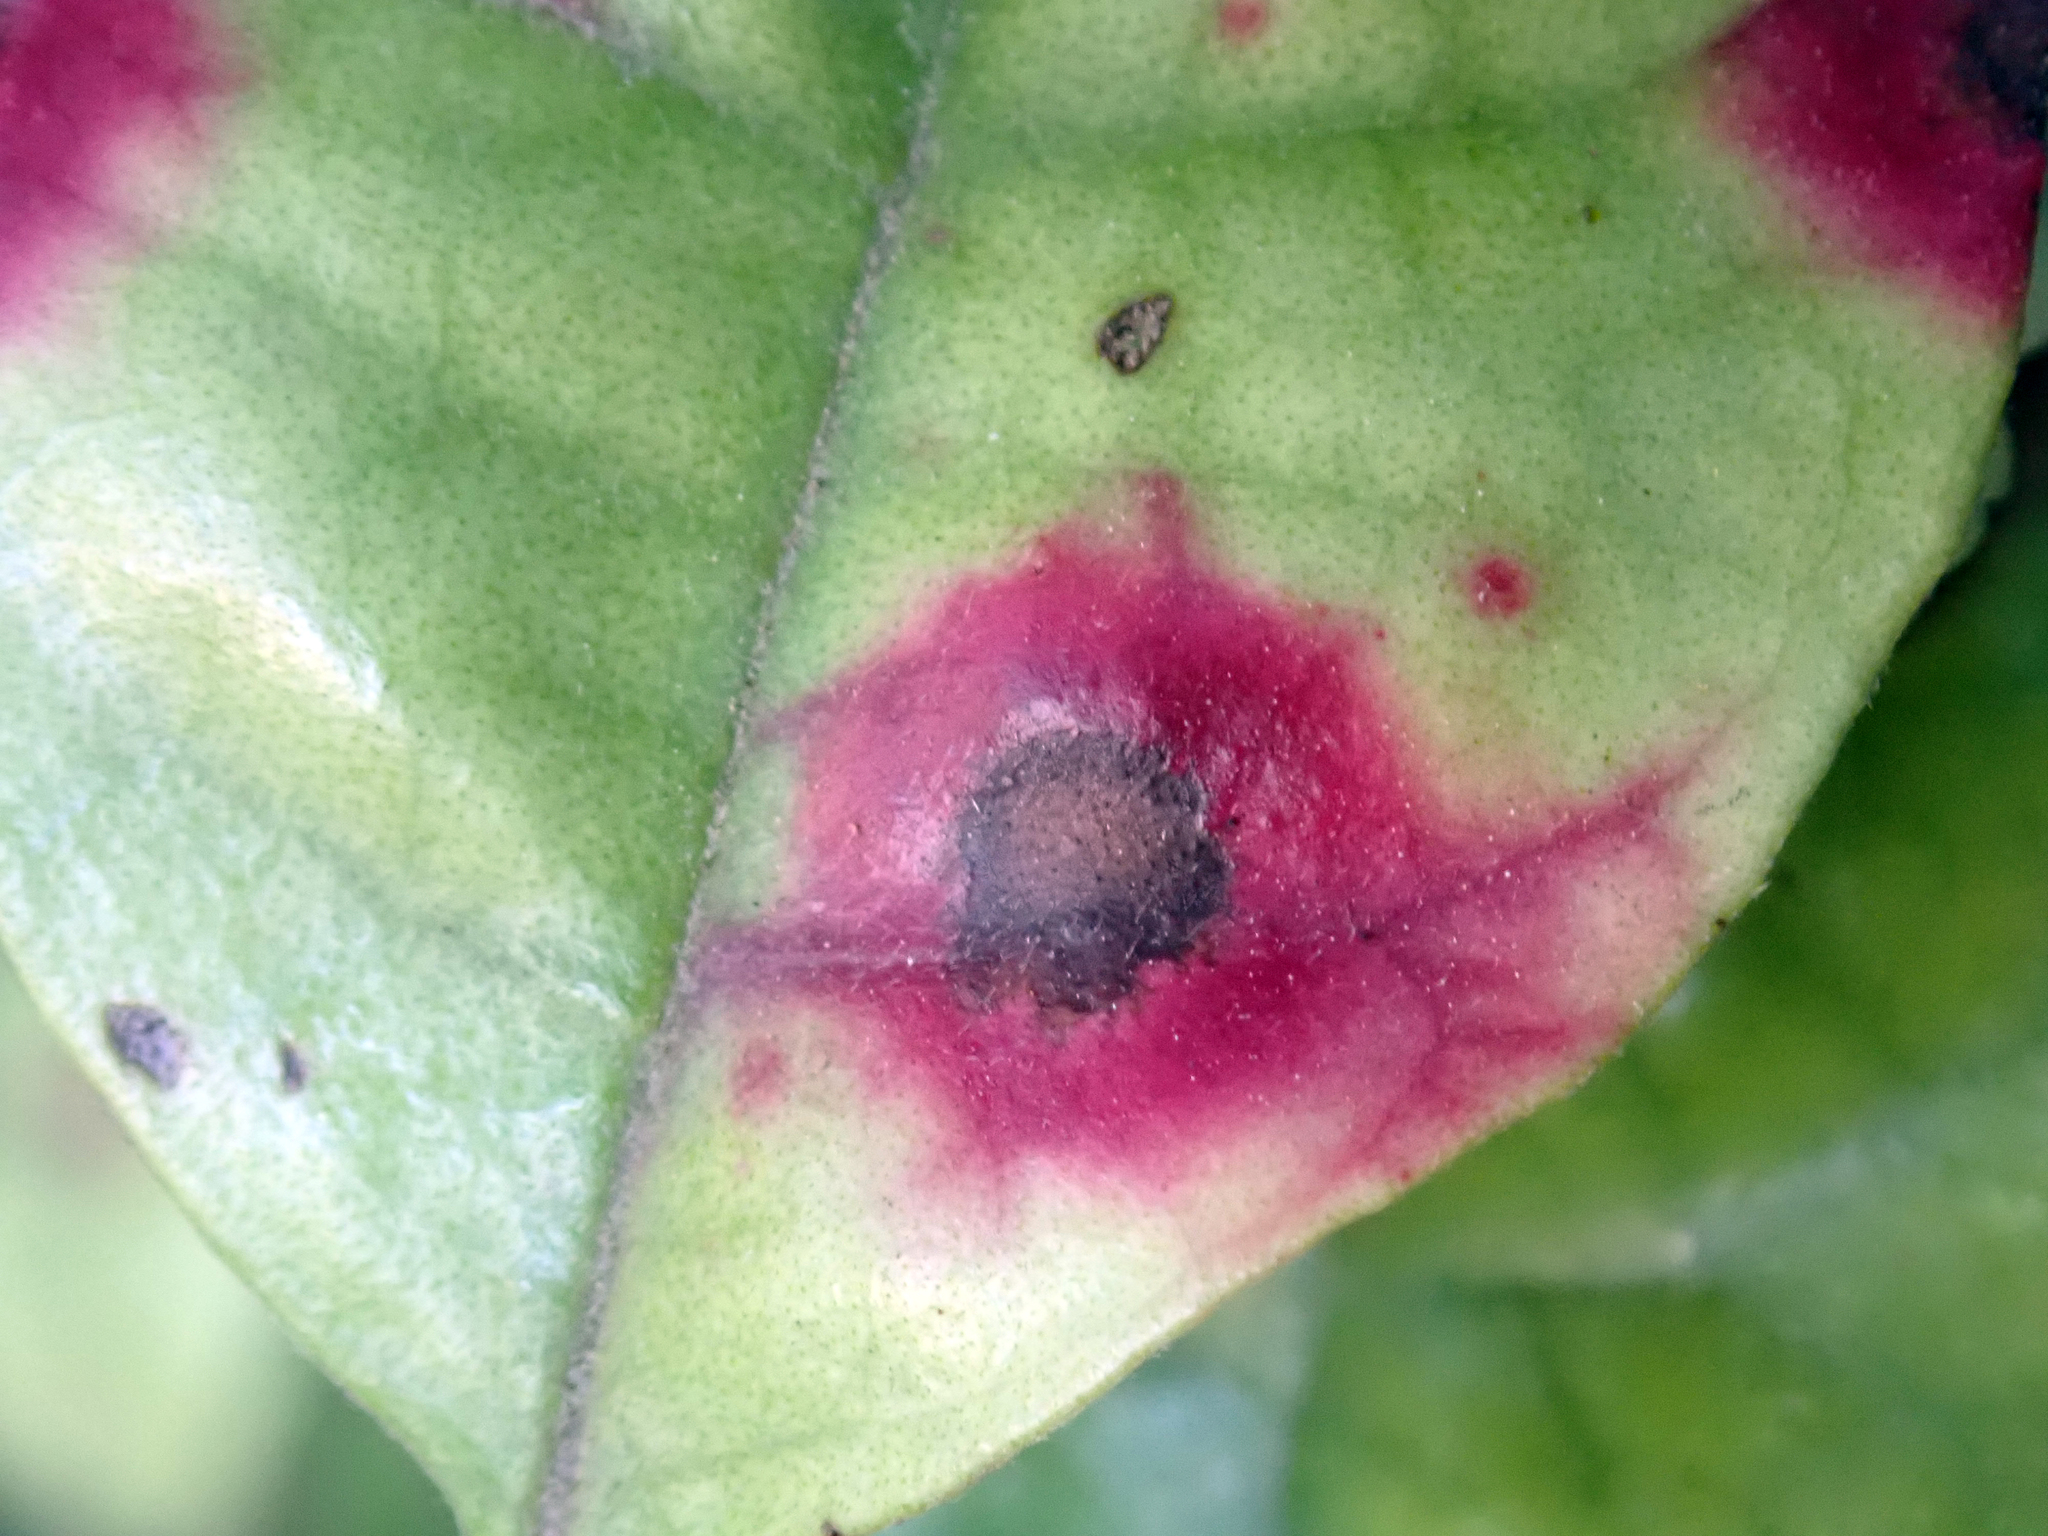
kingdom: Fungi
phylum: Basidiomycota
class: Pucciniomycetes
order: Pucciniales
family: Sphaerophragmiaceae
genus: Austropuccinia
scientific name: Austropuccinia psidii
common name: Myrtle rust
